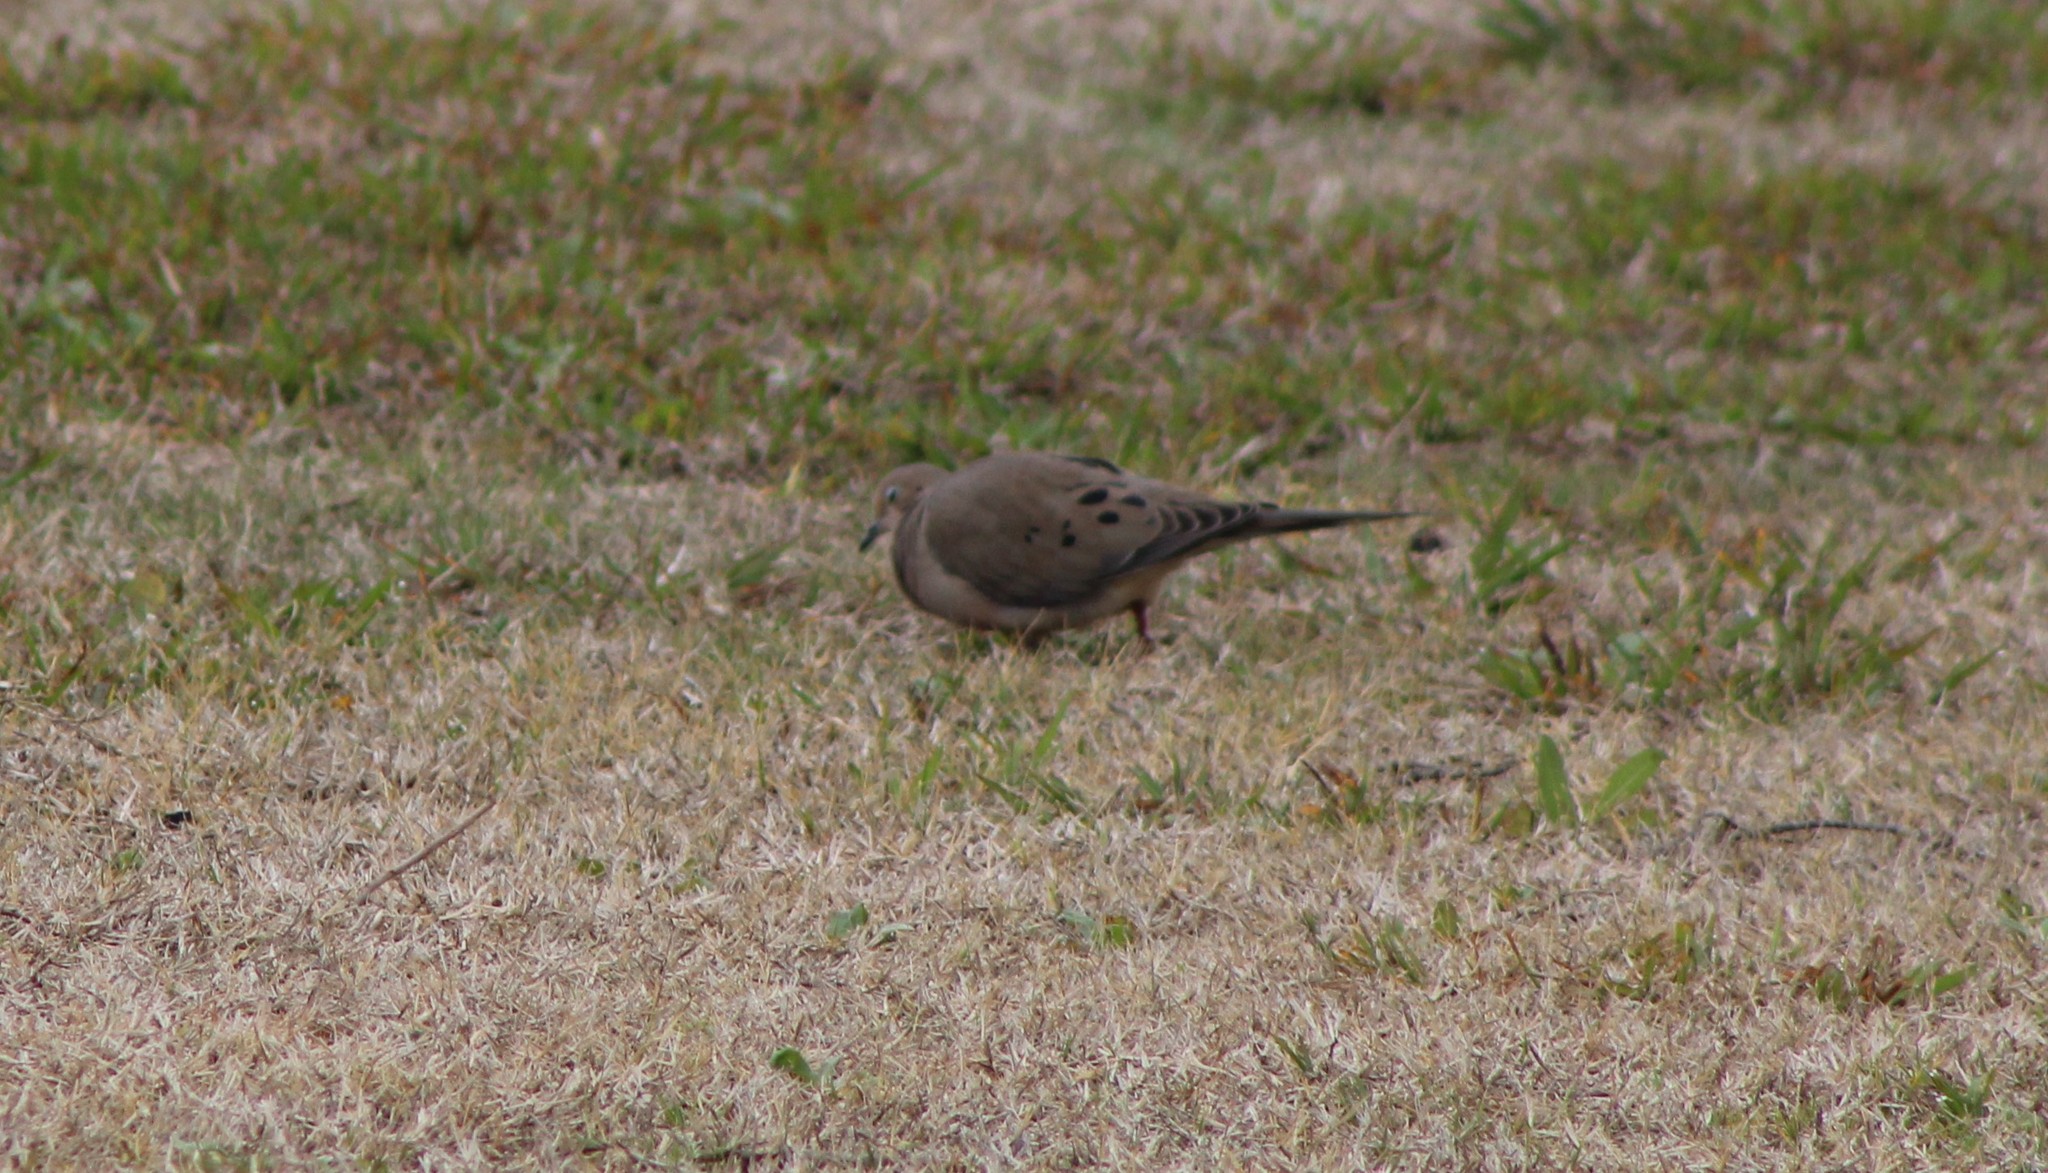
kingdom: Animalia
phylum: Chordata
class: Aves
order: Columbiformes
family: Columbidae
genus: Zenaida
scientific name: Zenaida macroura
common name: Mourning dove
